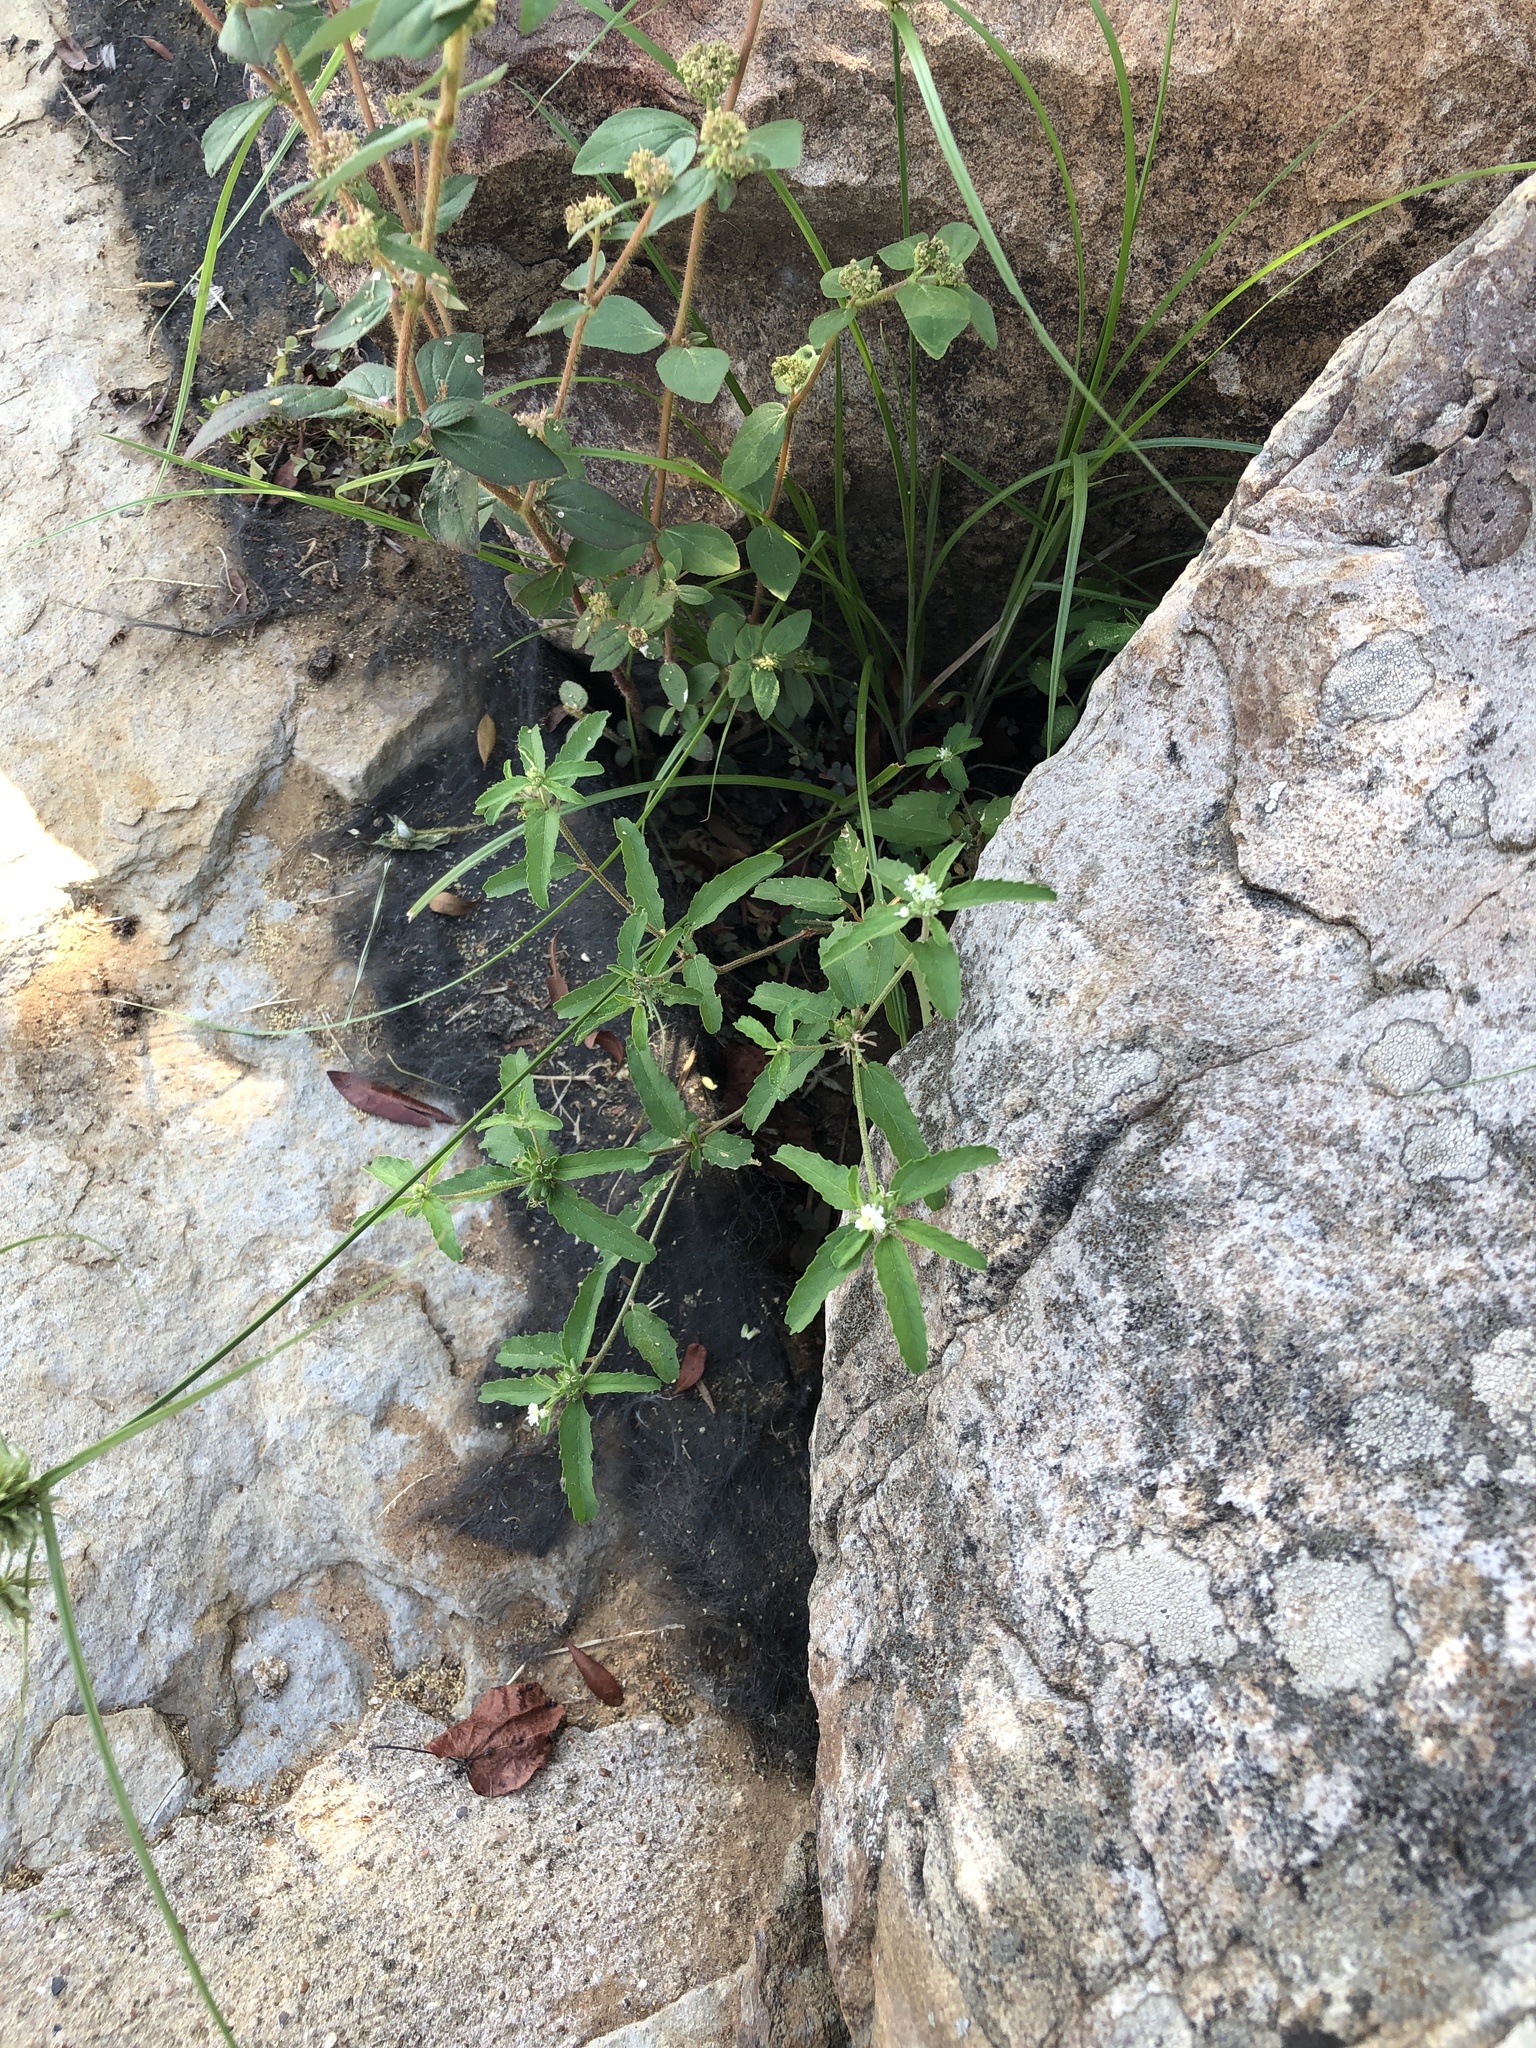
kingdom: Plantae
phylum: Tracheophyta
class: Magnoliopsida
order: Malpighiales
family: Euphorbiaceae
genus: Croton
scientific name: Croton glandulosus
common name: Tropic croton
